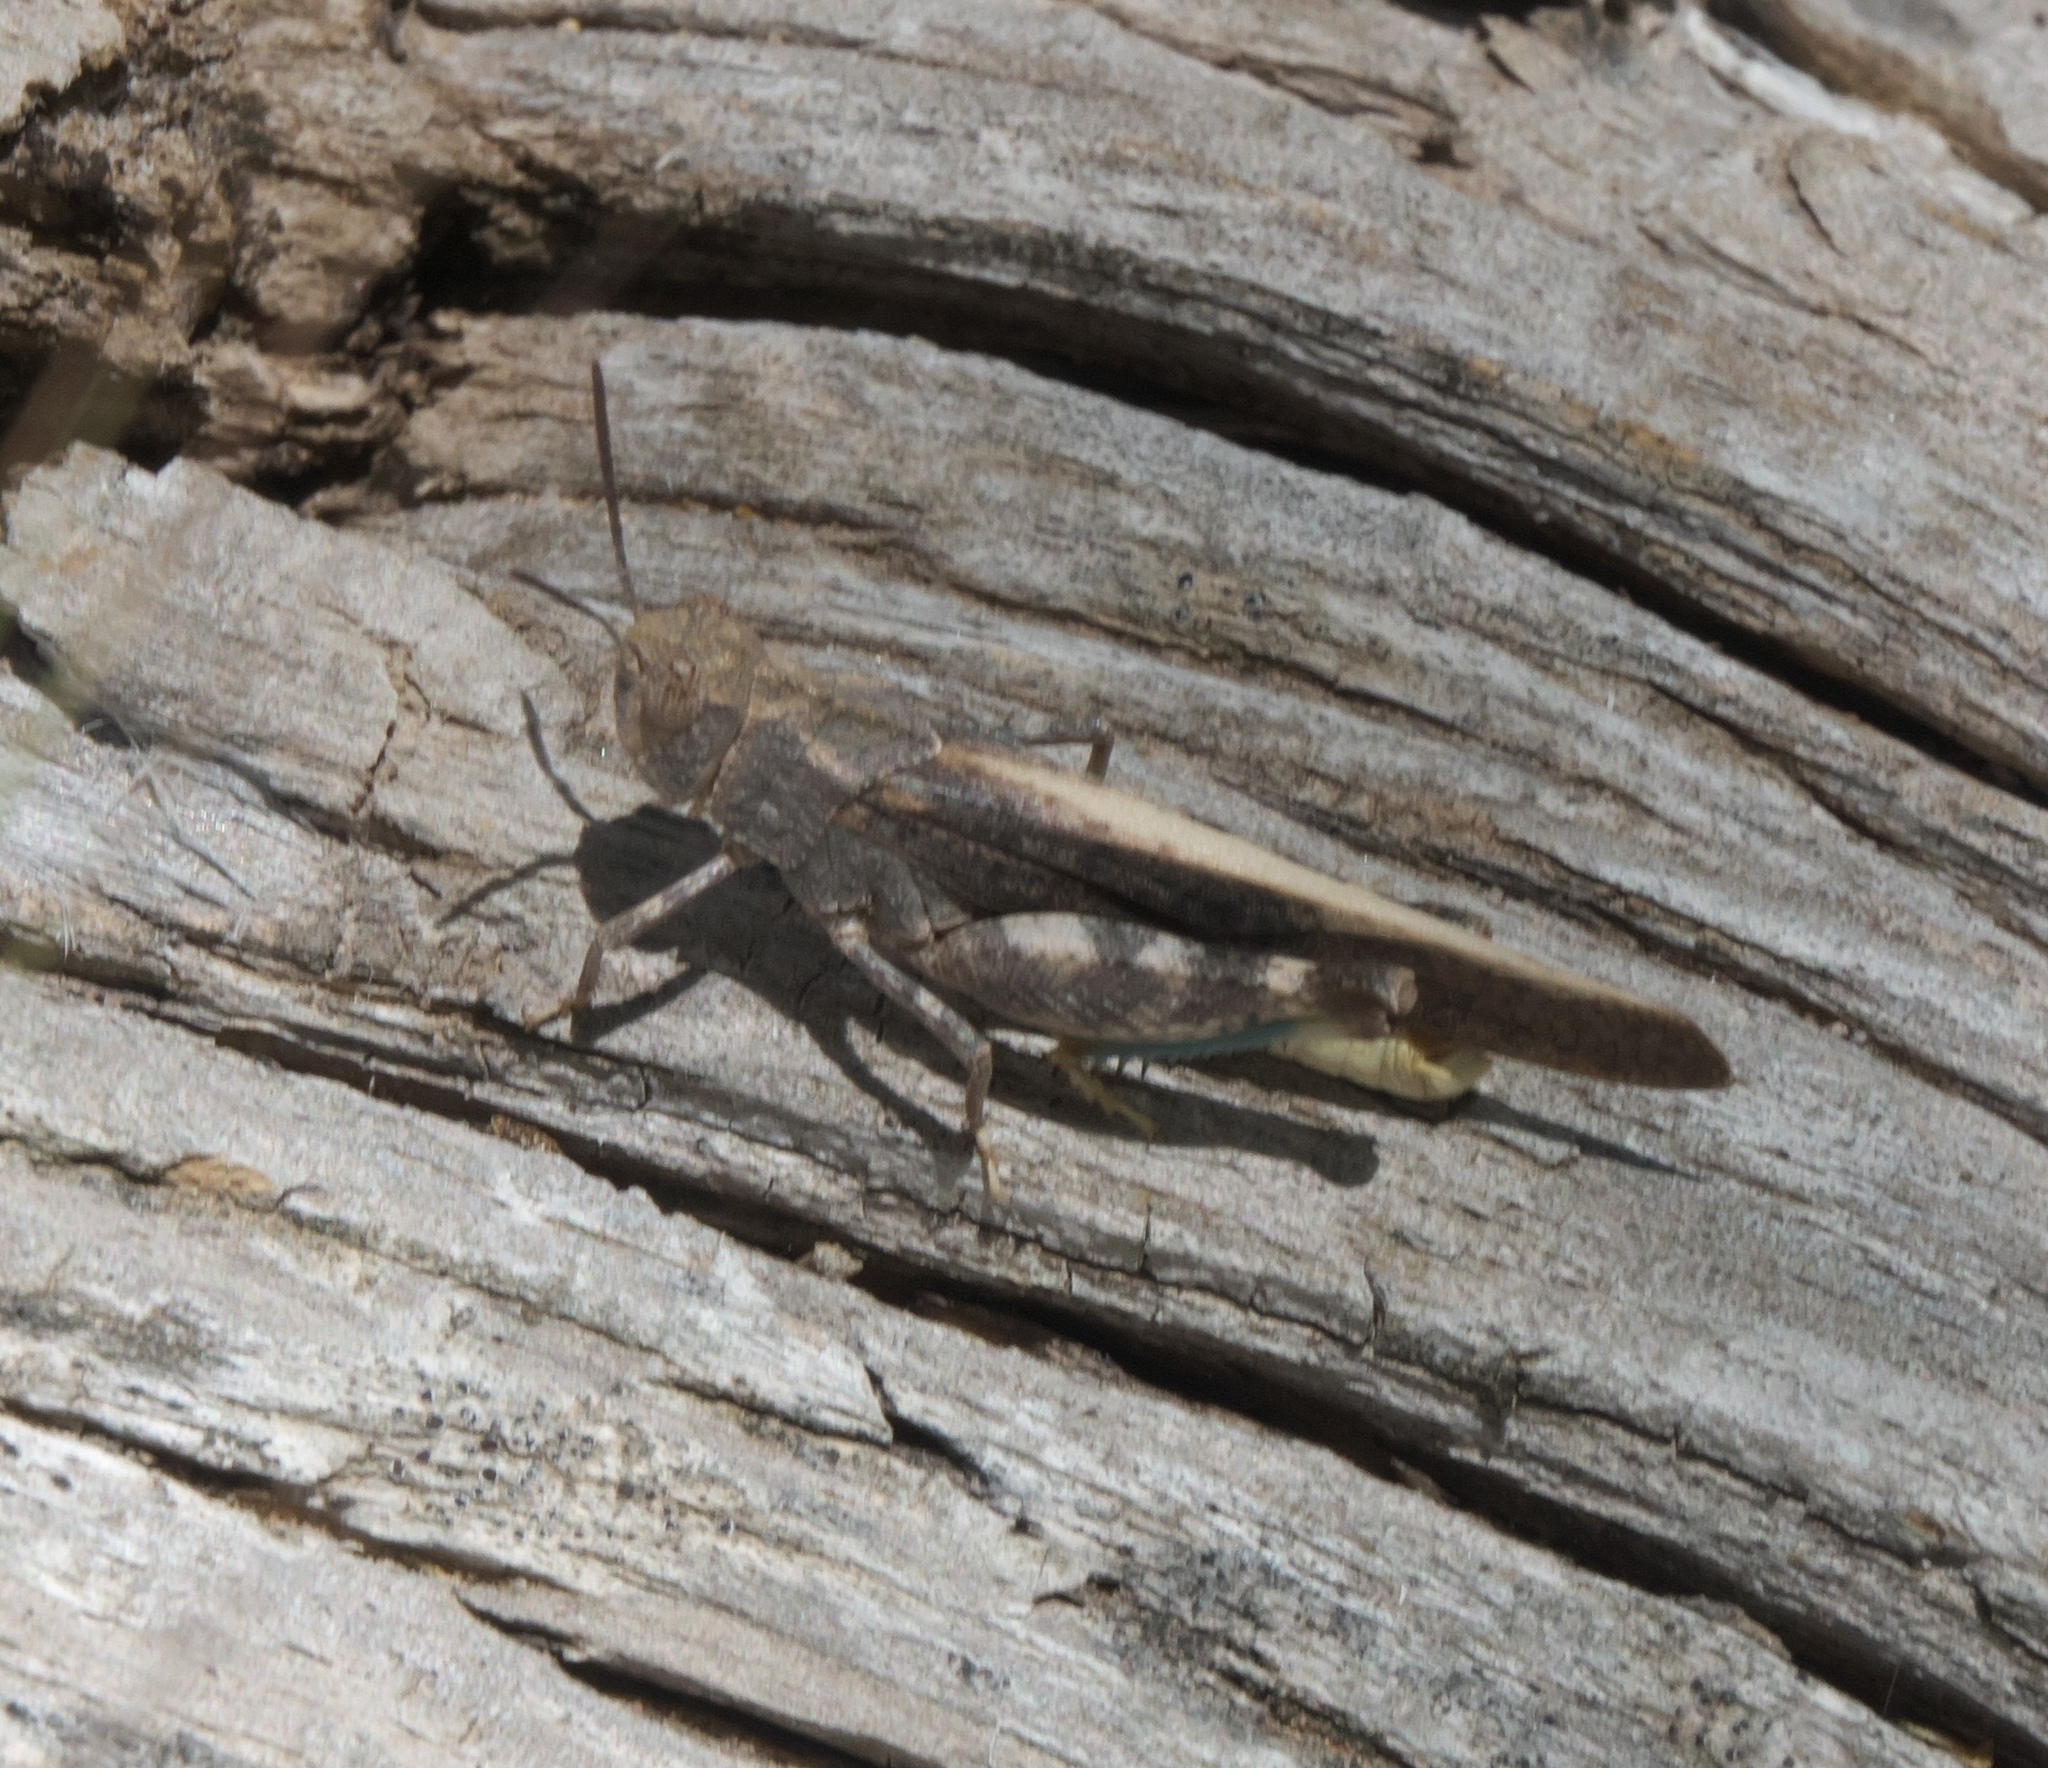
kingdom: Animalia
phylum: Arthropoda
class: Insecta
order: Orthoptera
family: Acrididae
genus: Arphia
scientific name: Arphia conspersa
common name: Speckle-winged rangeland grasshopper
